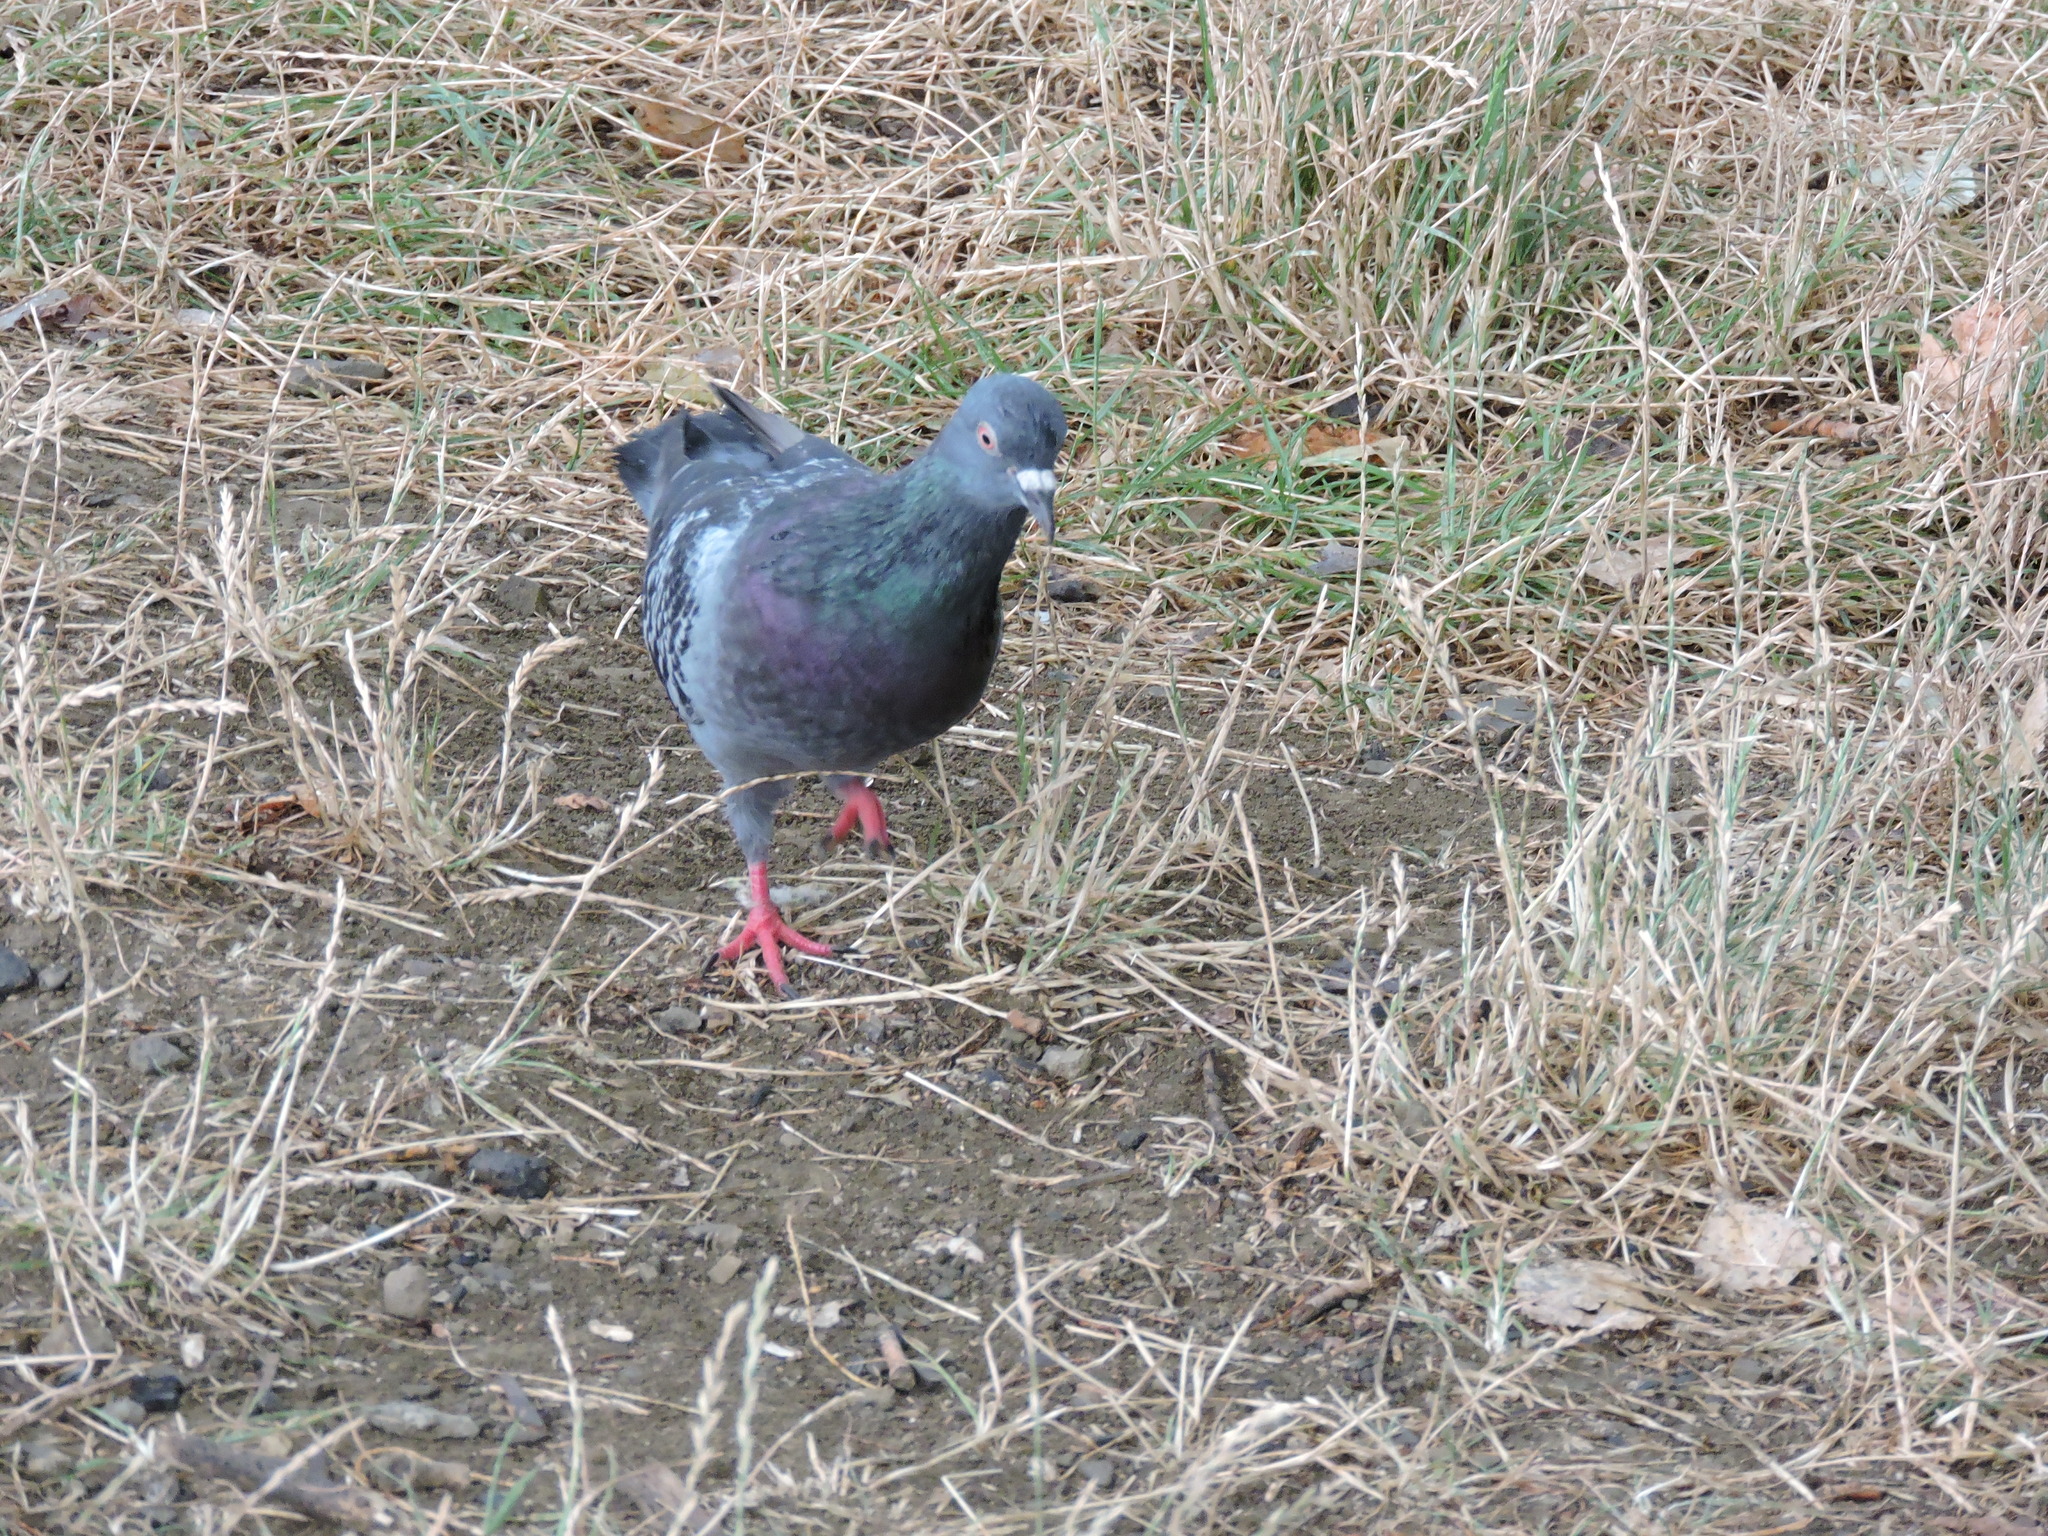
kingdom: Animalia
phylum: Chordata
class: Aves
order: Columbiformes
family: Columbidae
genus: Columba
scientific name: Columba livia
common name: Rock pigeon
